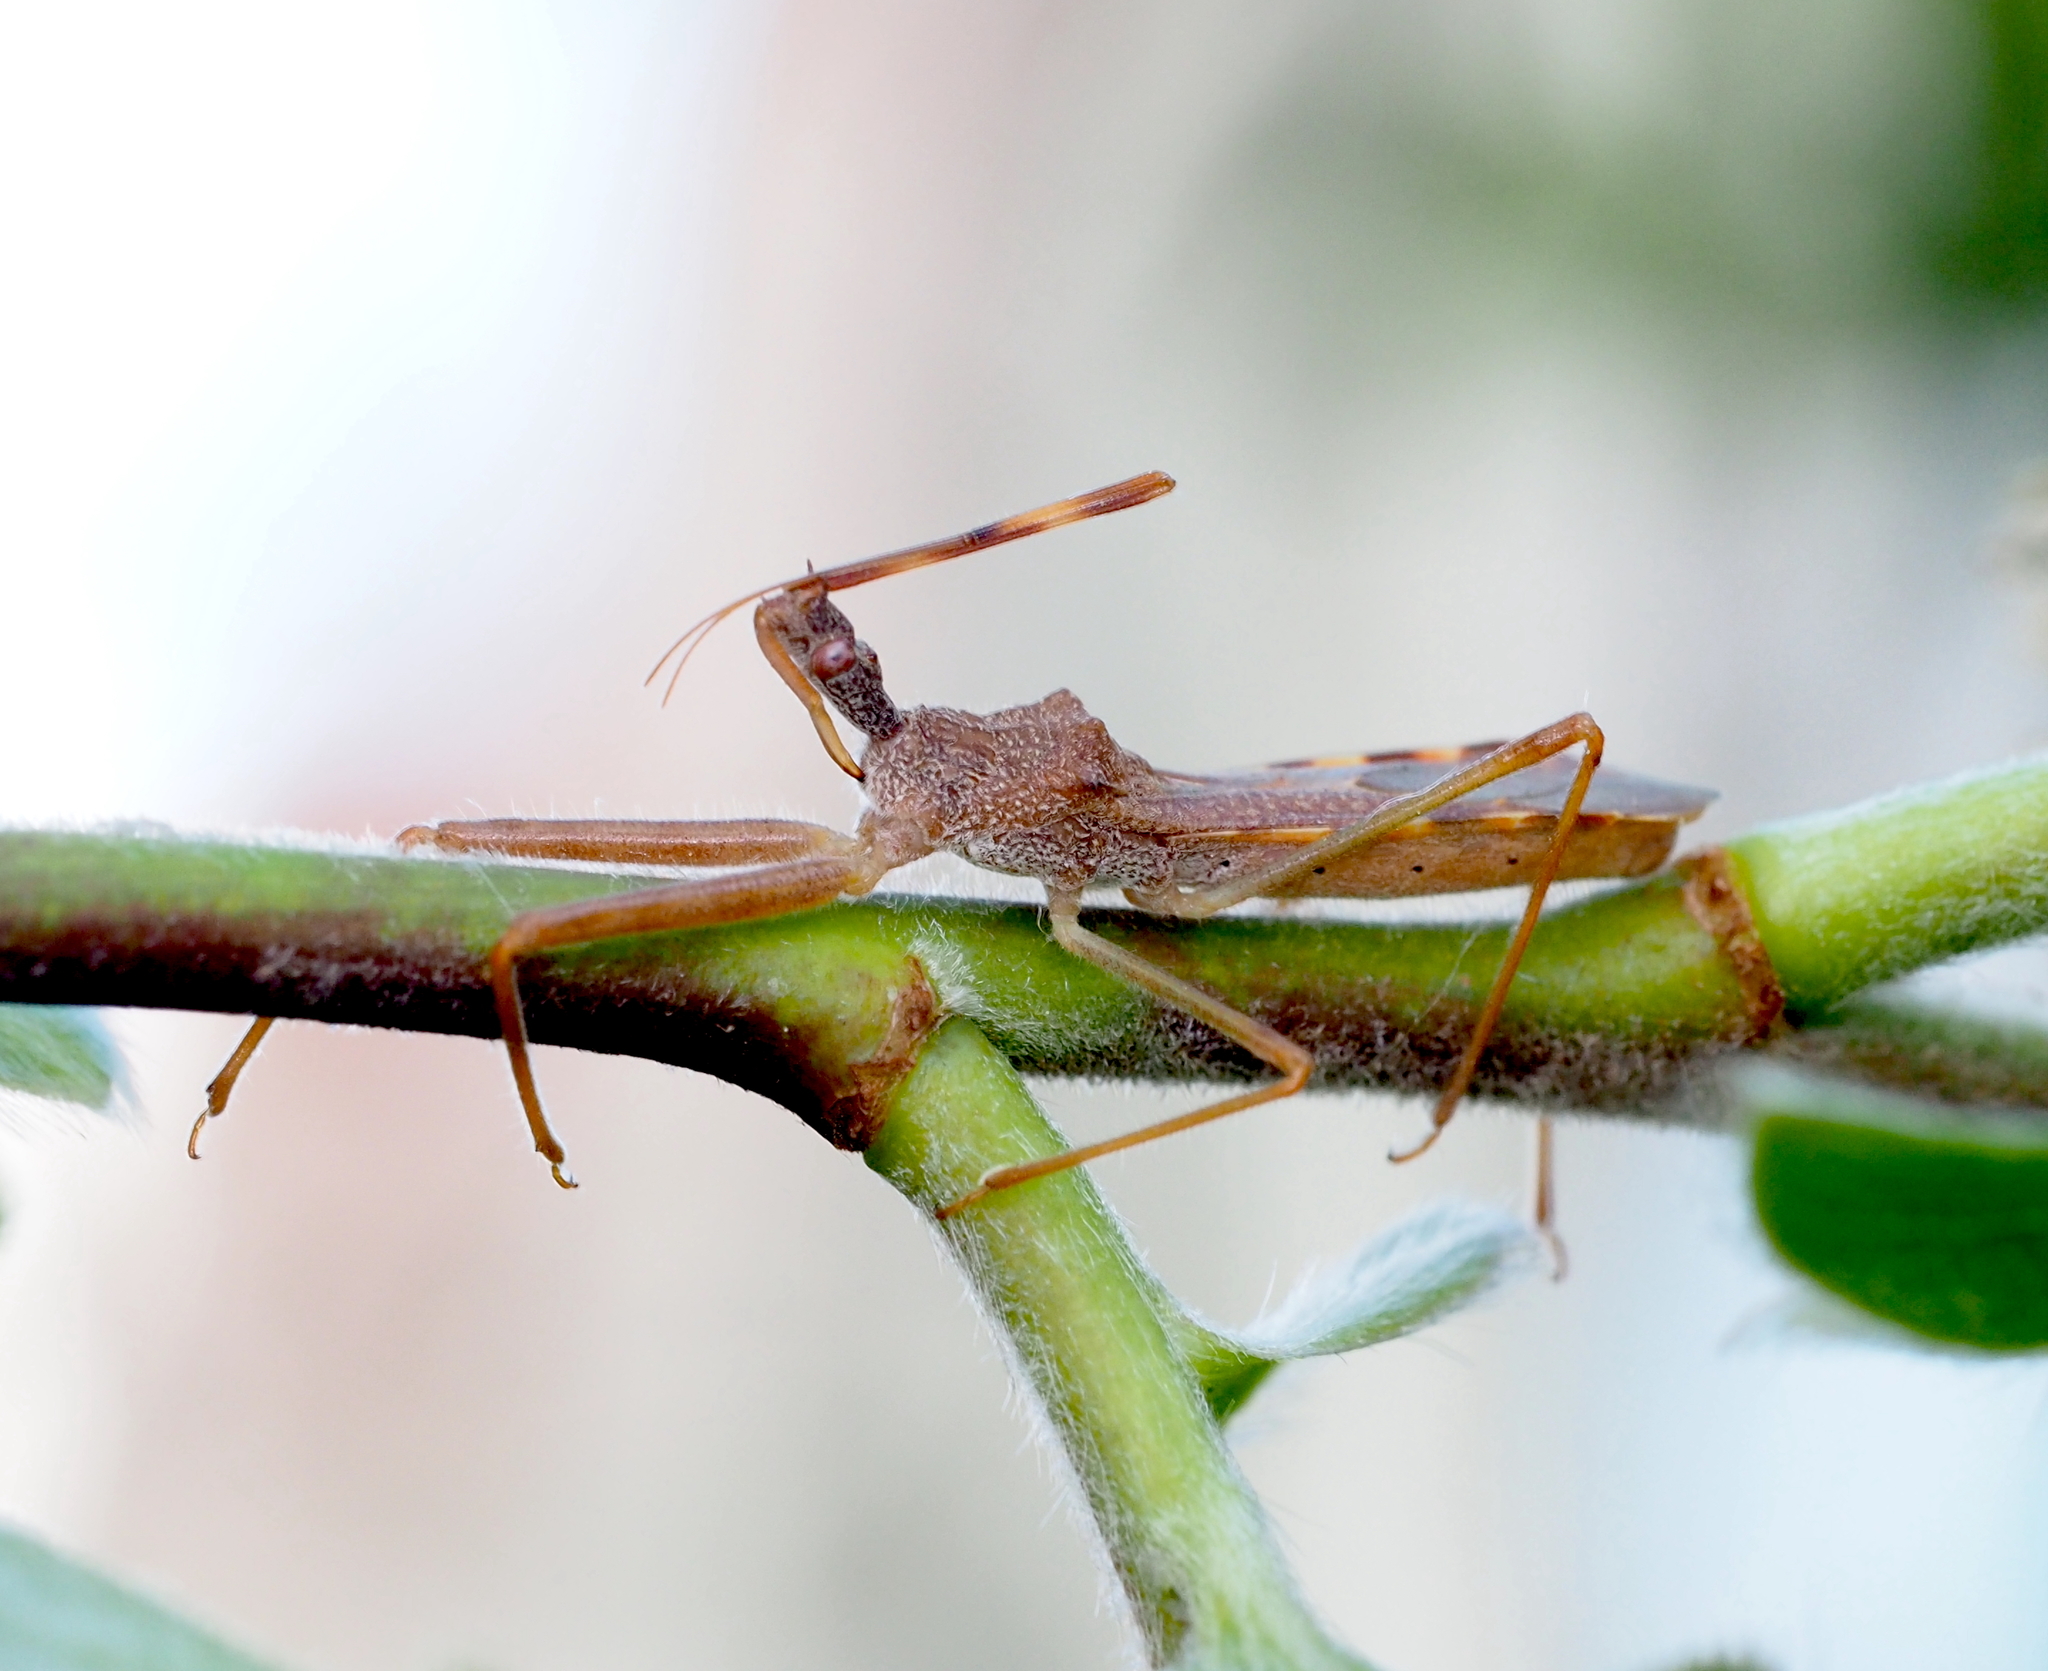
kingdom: Animalia
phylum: Arthropoda
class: Insecta
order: Hemiptera
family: Reduviidae
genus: Nagusta
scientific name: Nagusta goedelii
